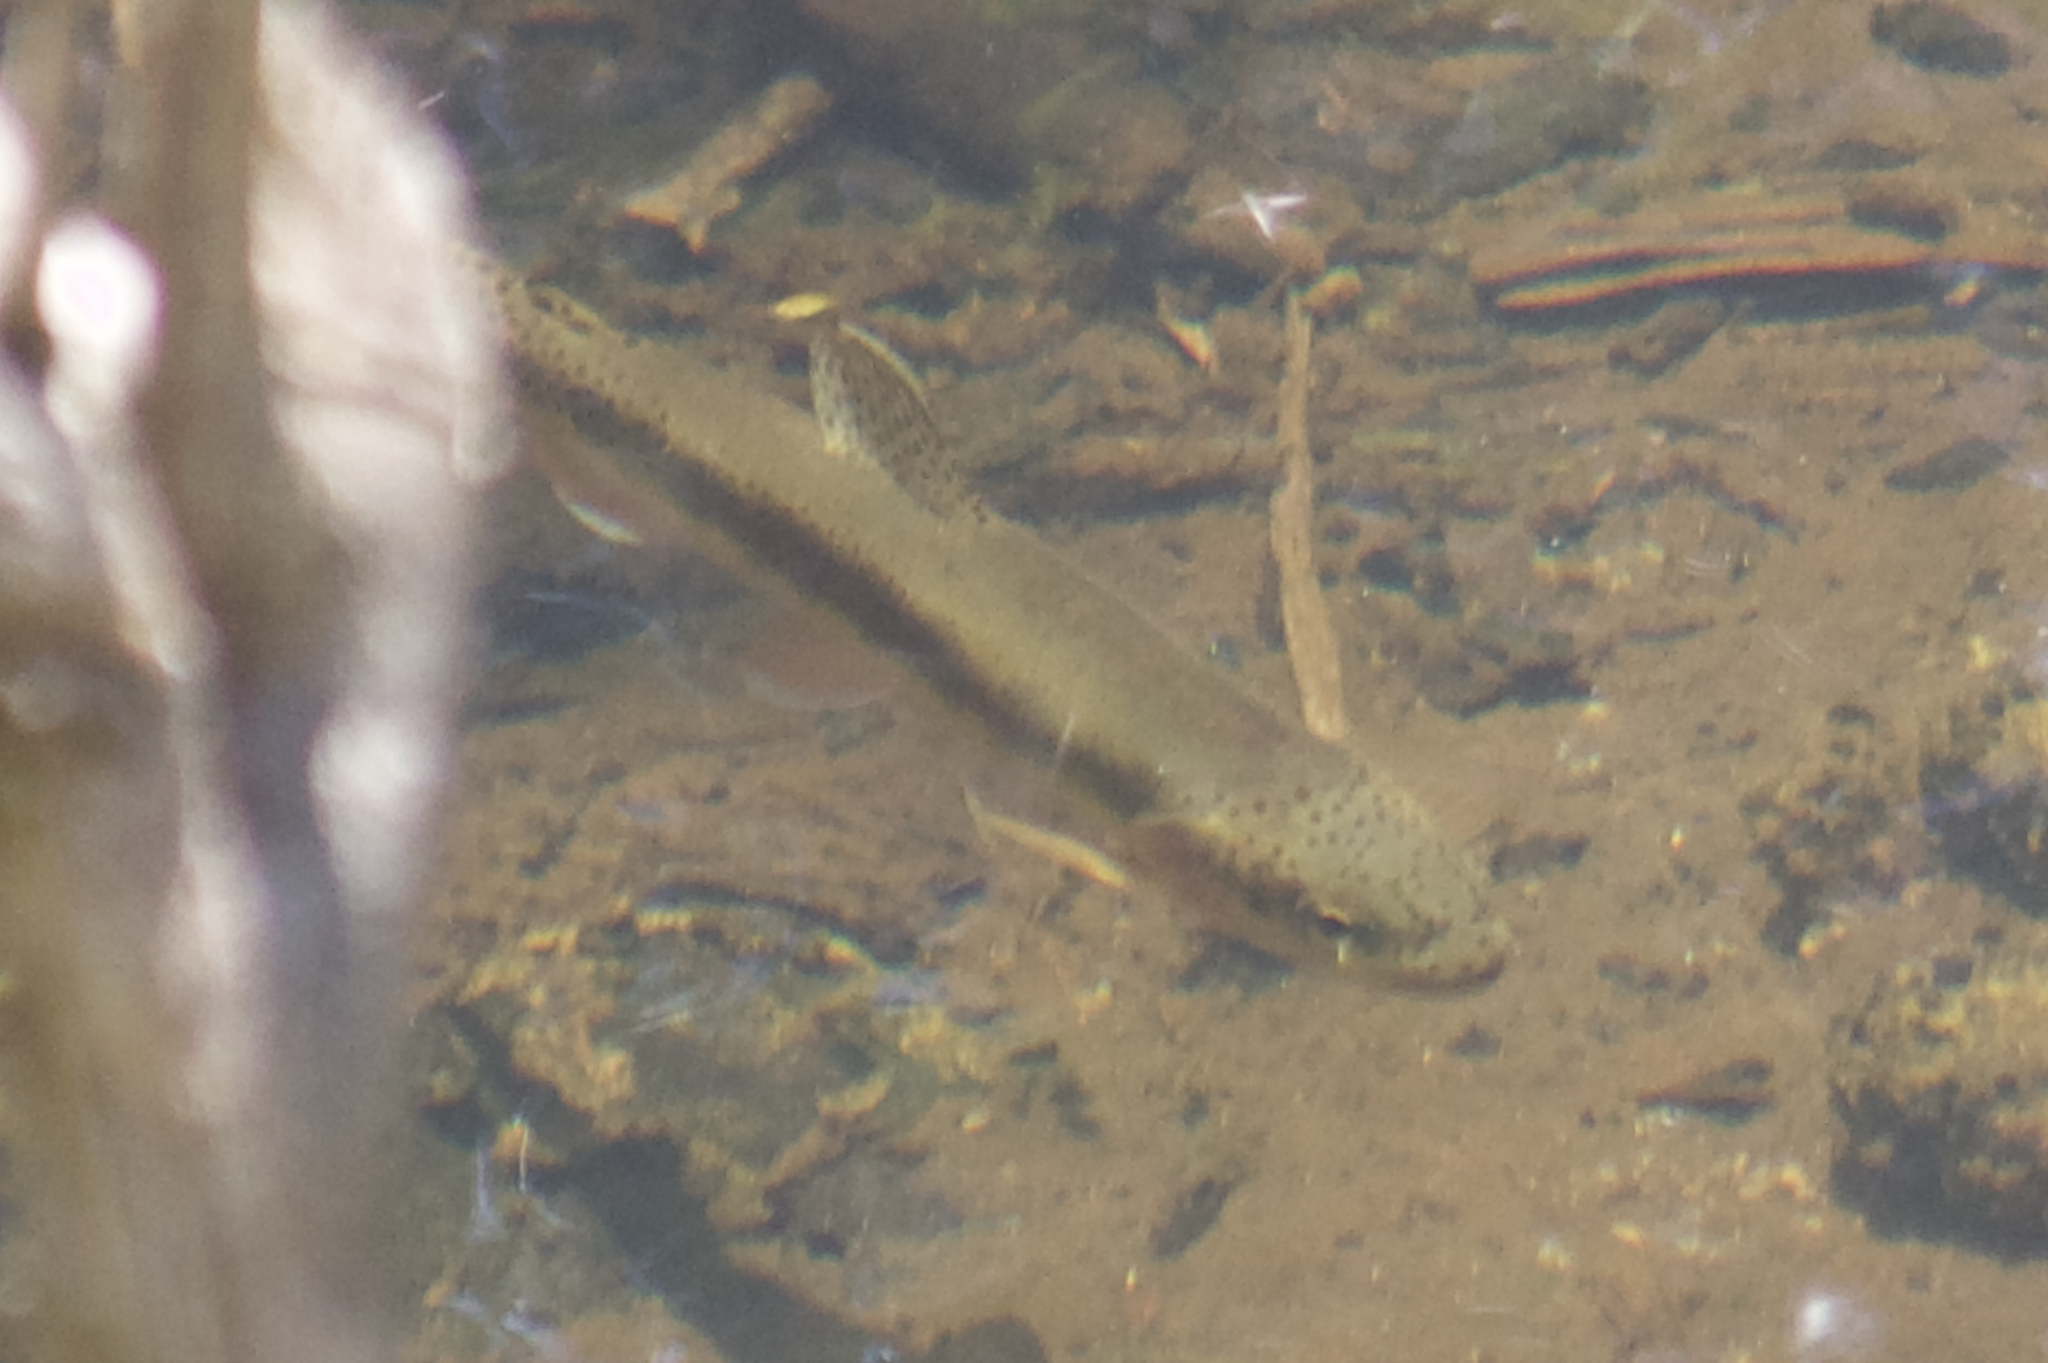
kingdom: Animalia
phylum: Chordata
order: Salmoniformes
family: Salmonidae
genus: Oncorhynchus
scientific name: Oncorhynchus mykiss
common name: Rainbow trout
